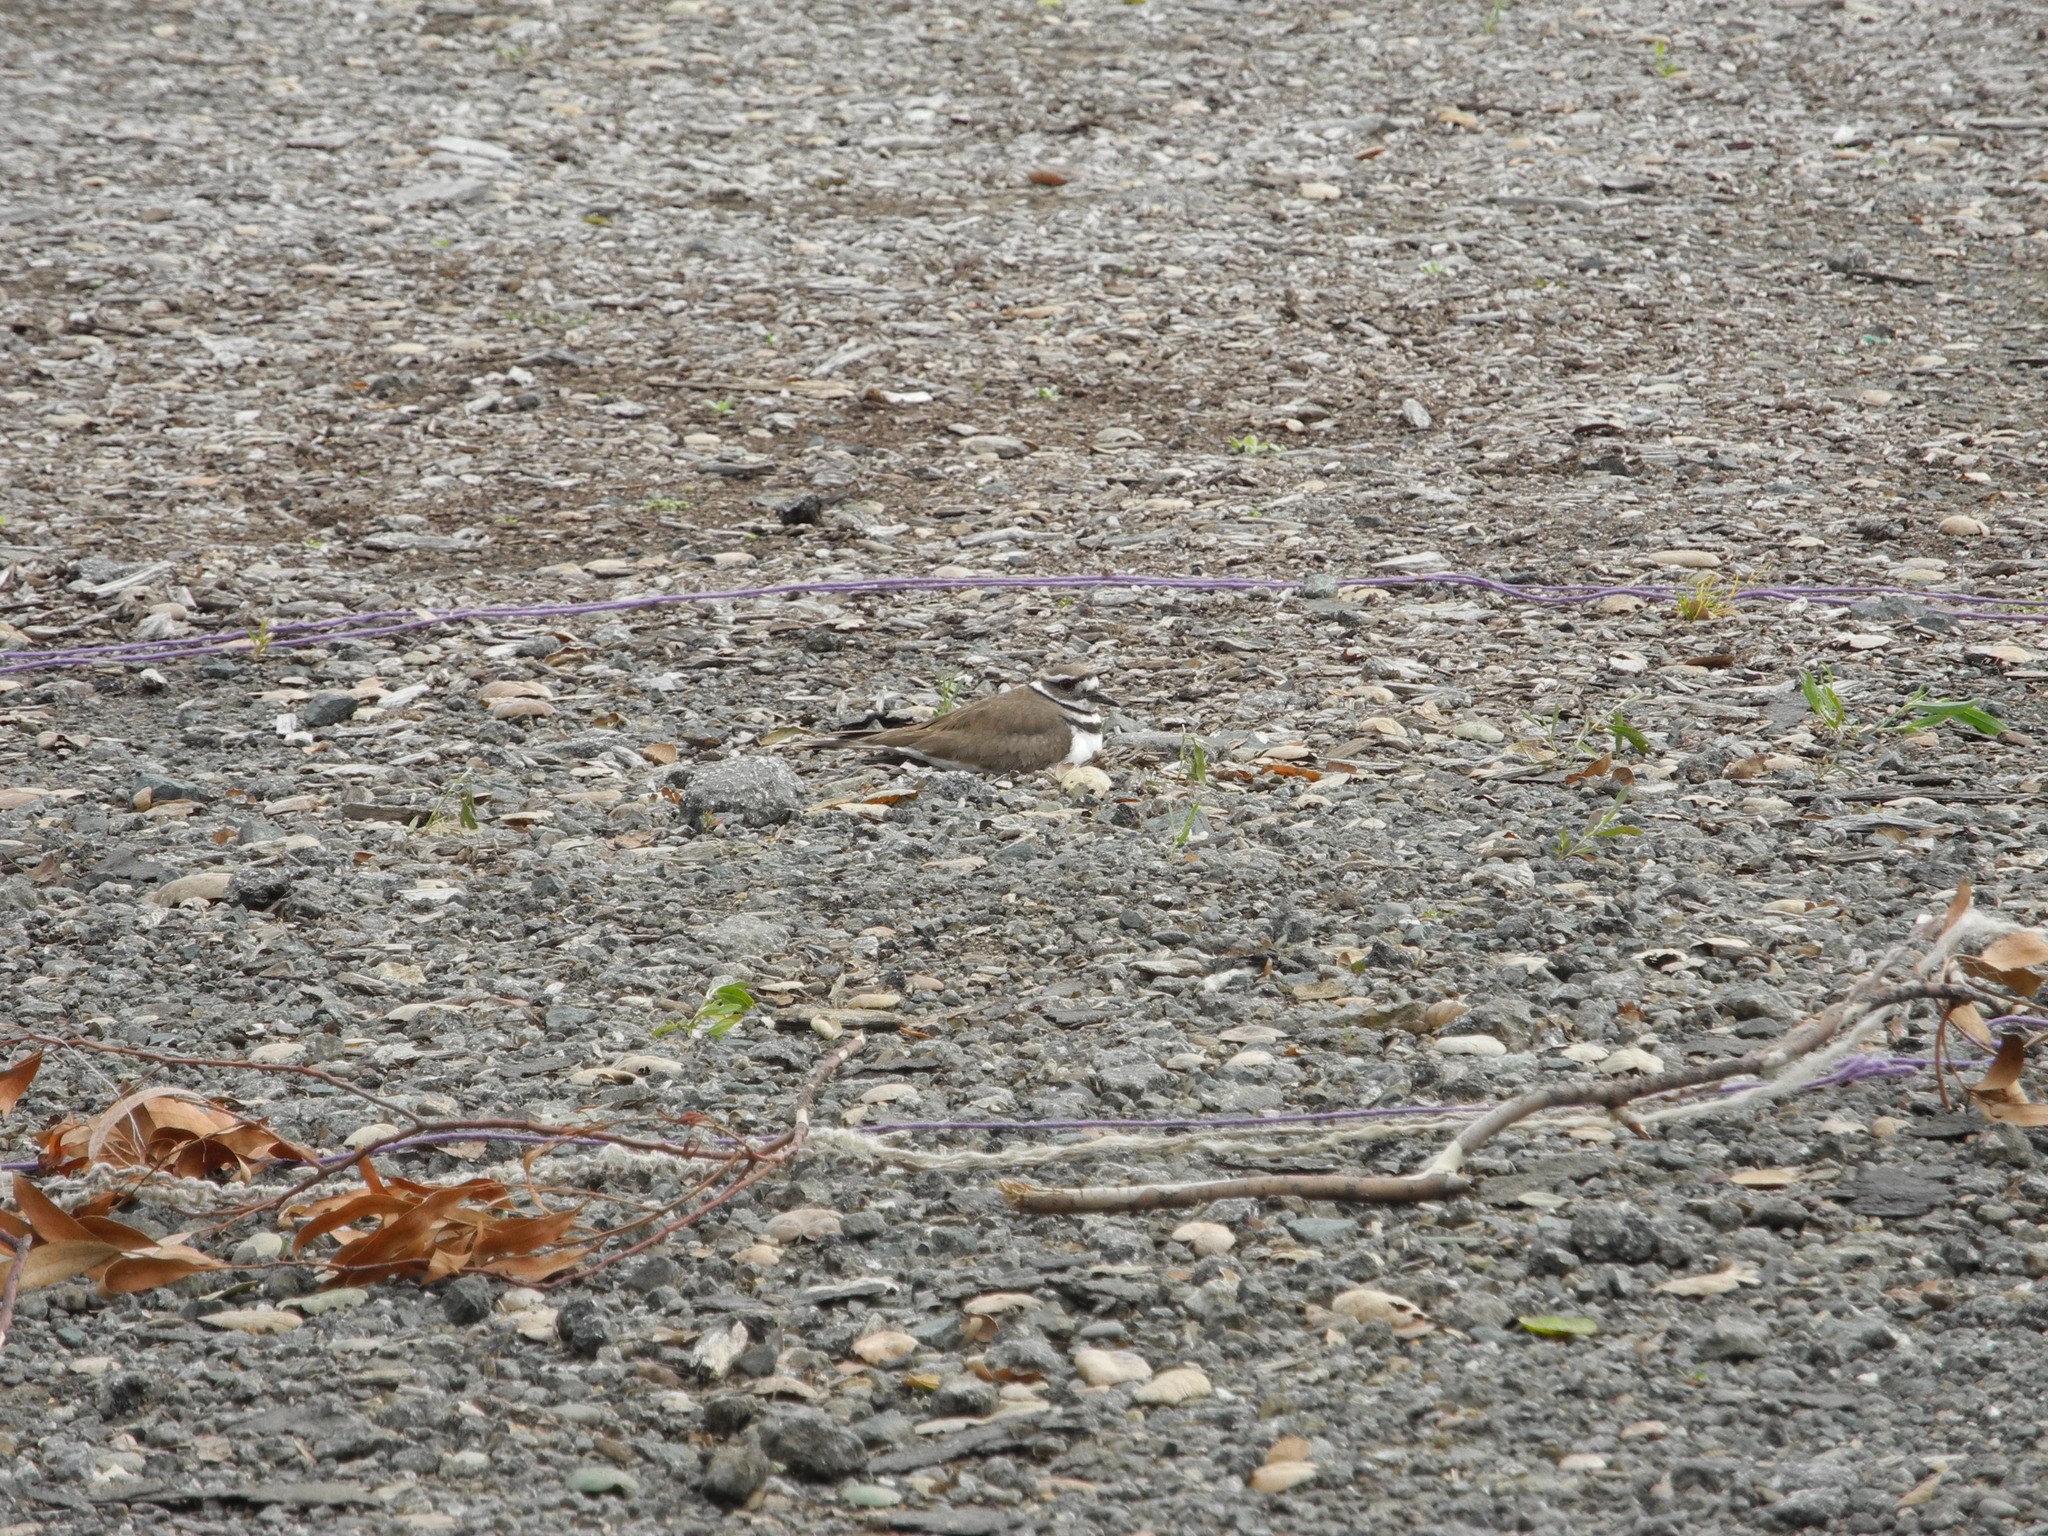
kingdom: Animalia
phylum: Chordata
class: Aves
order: Charadriiformes
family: Charadriidae
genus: Charadrius
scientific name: Charadrius vociferus
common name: Killdeer
